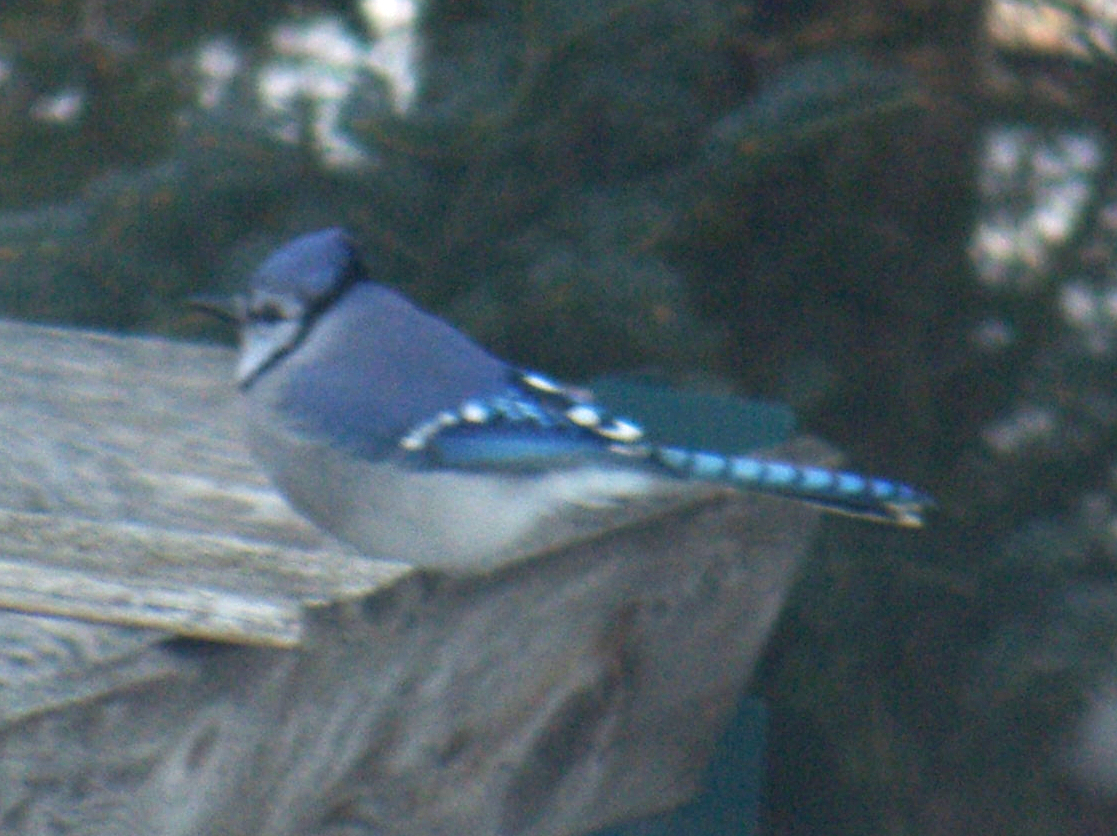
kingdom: Animalia
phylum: Chordata
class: Aves
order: Passeriformes
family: Corvidae
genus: Cyanocitta
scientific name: Cyanocitta cristata
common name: Blue jay
